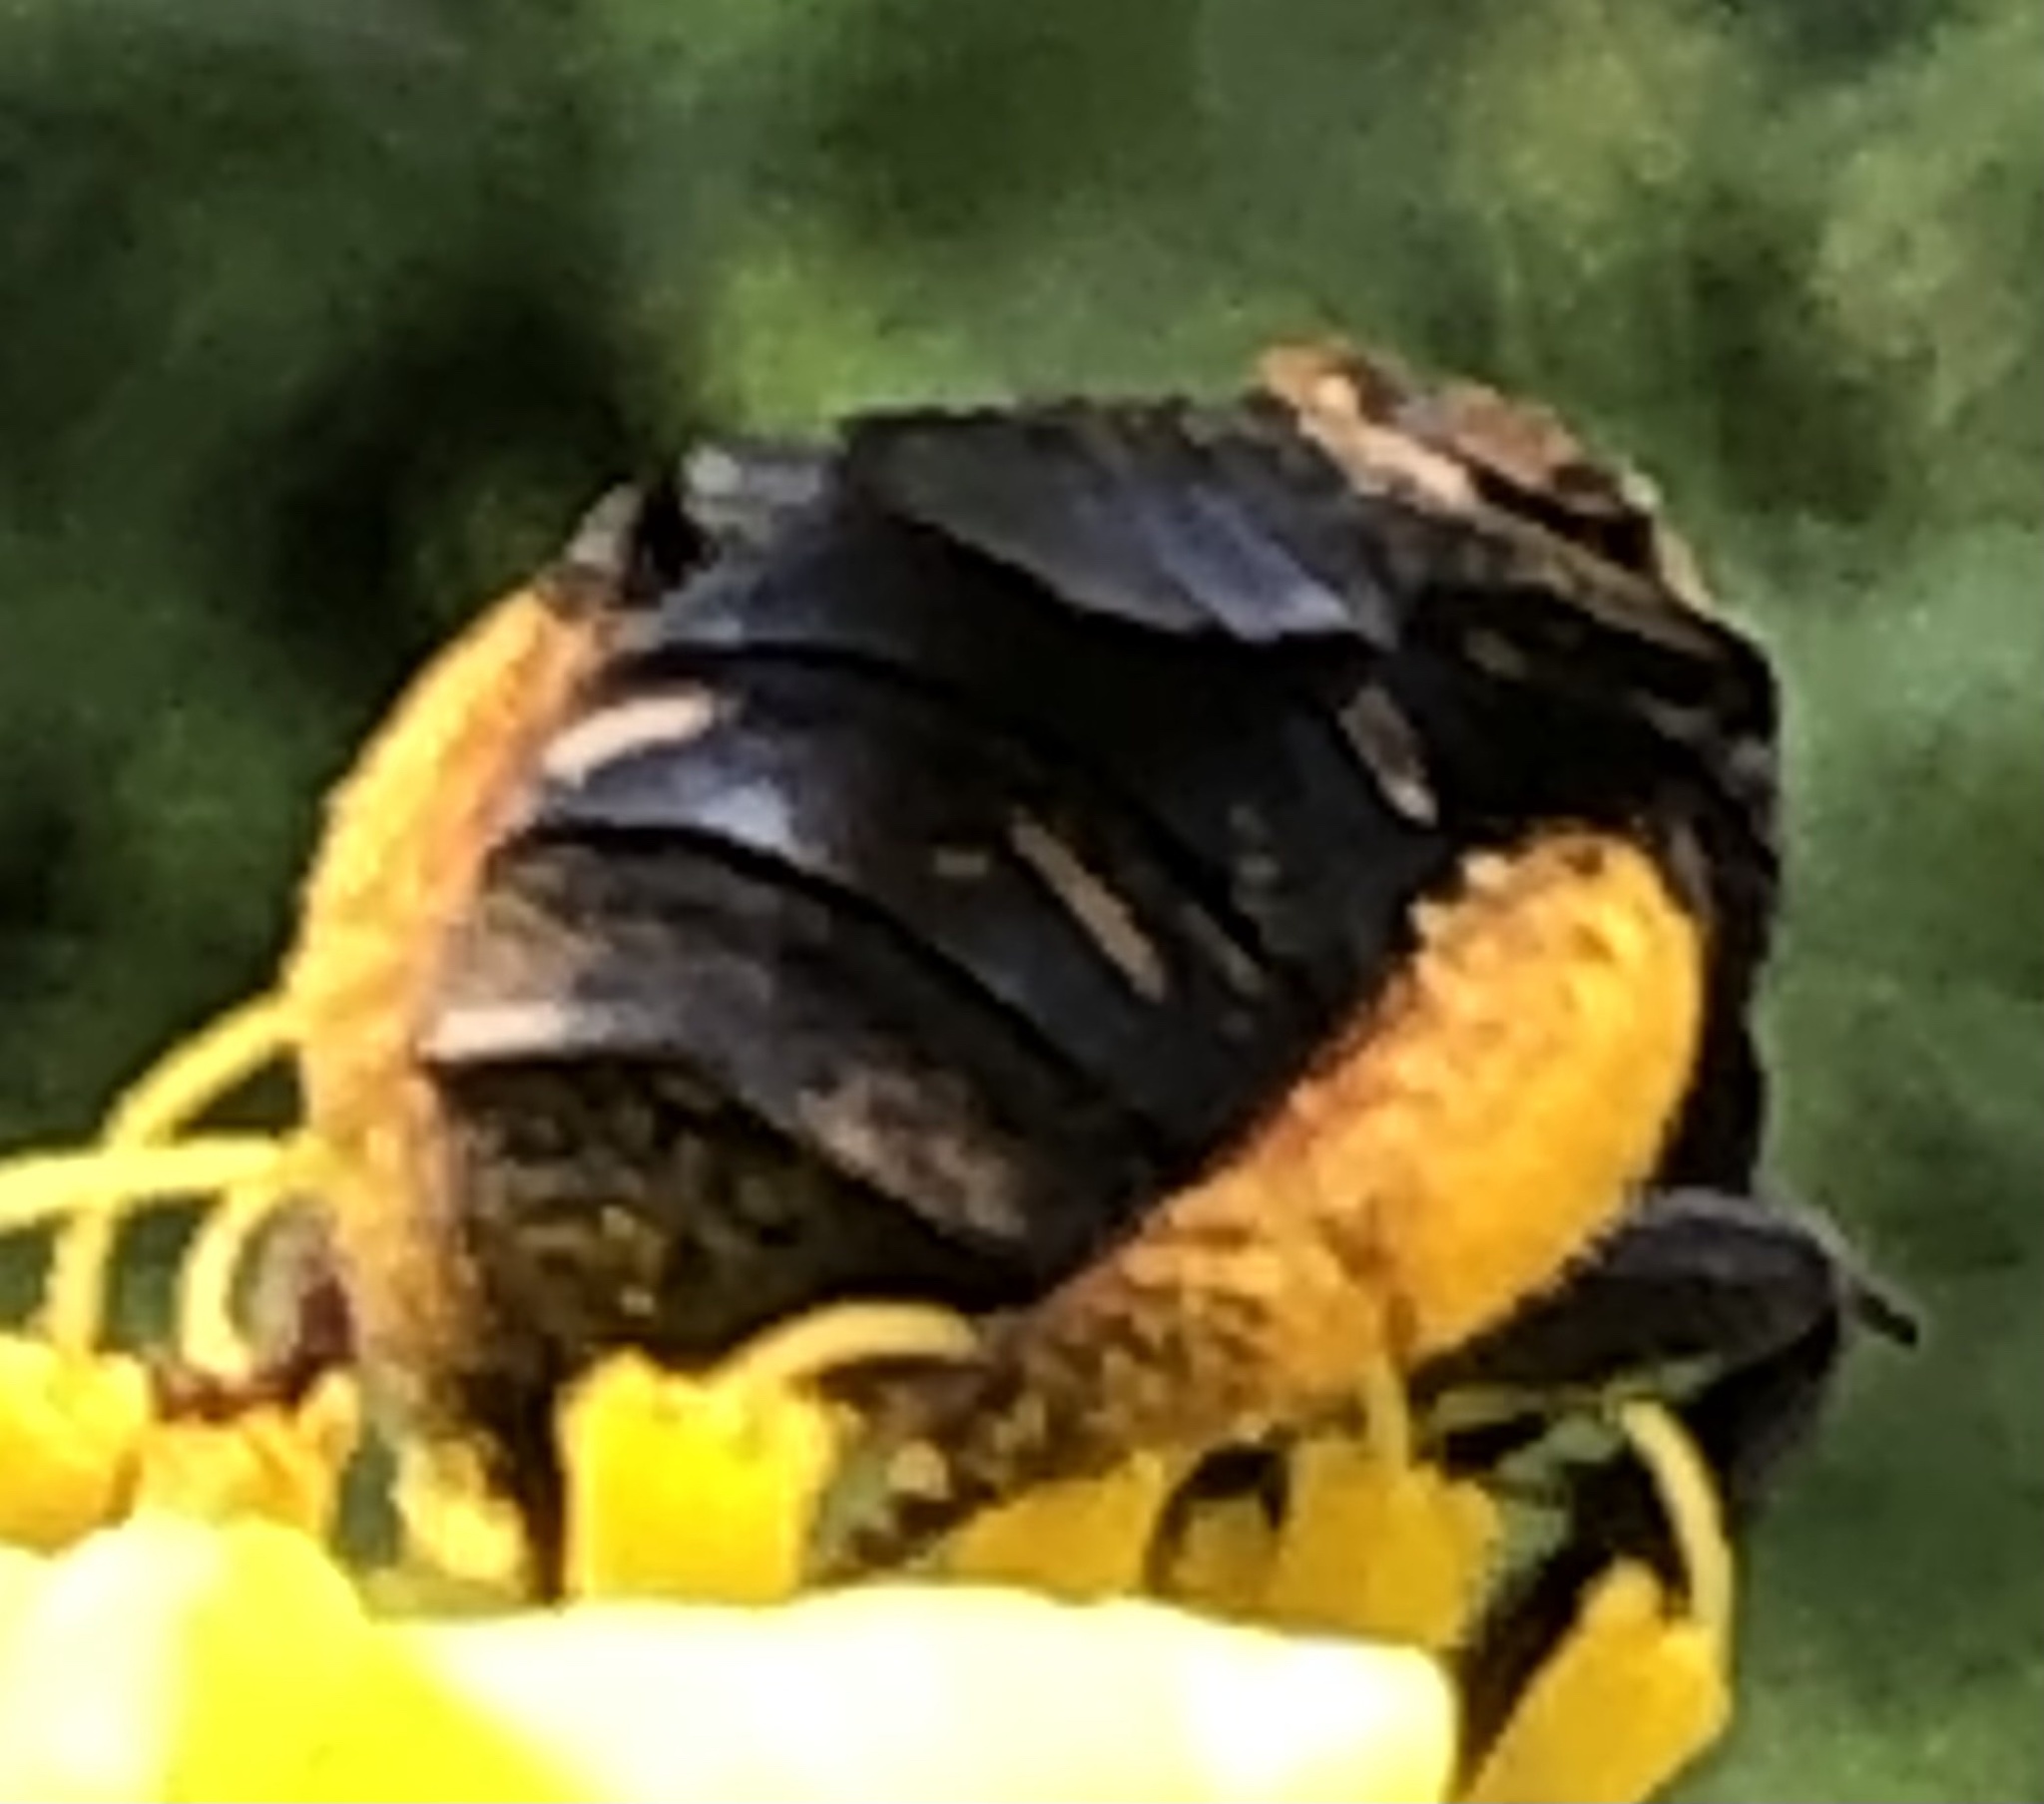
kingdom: Animalia
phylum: Arthropoda
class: Insecta
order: Hymenoptera
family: Apidae
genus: Svastra
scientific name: Svastra obliqua
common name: Oblique longhorn
